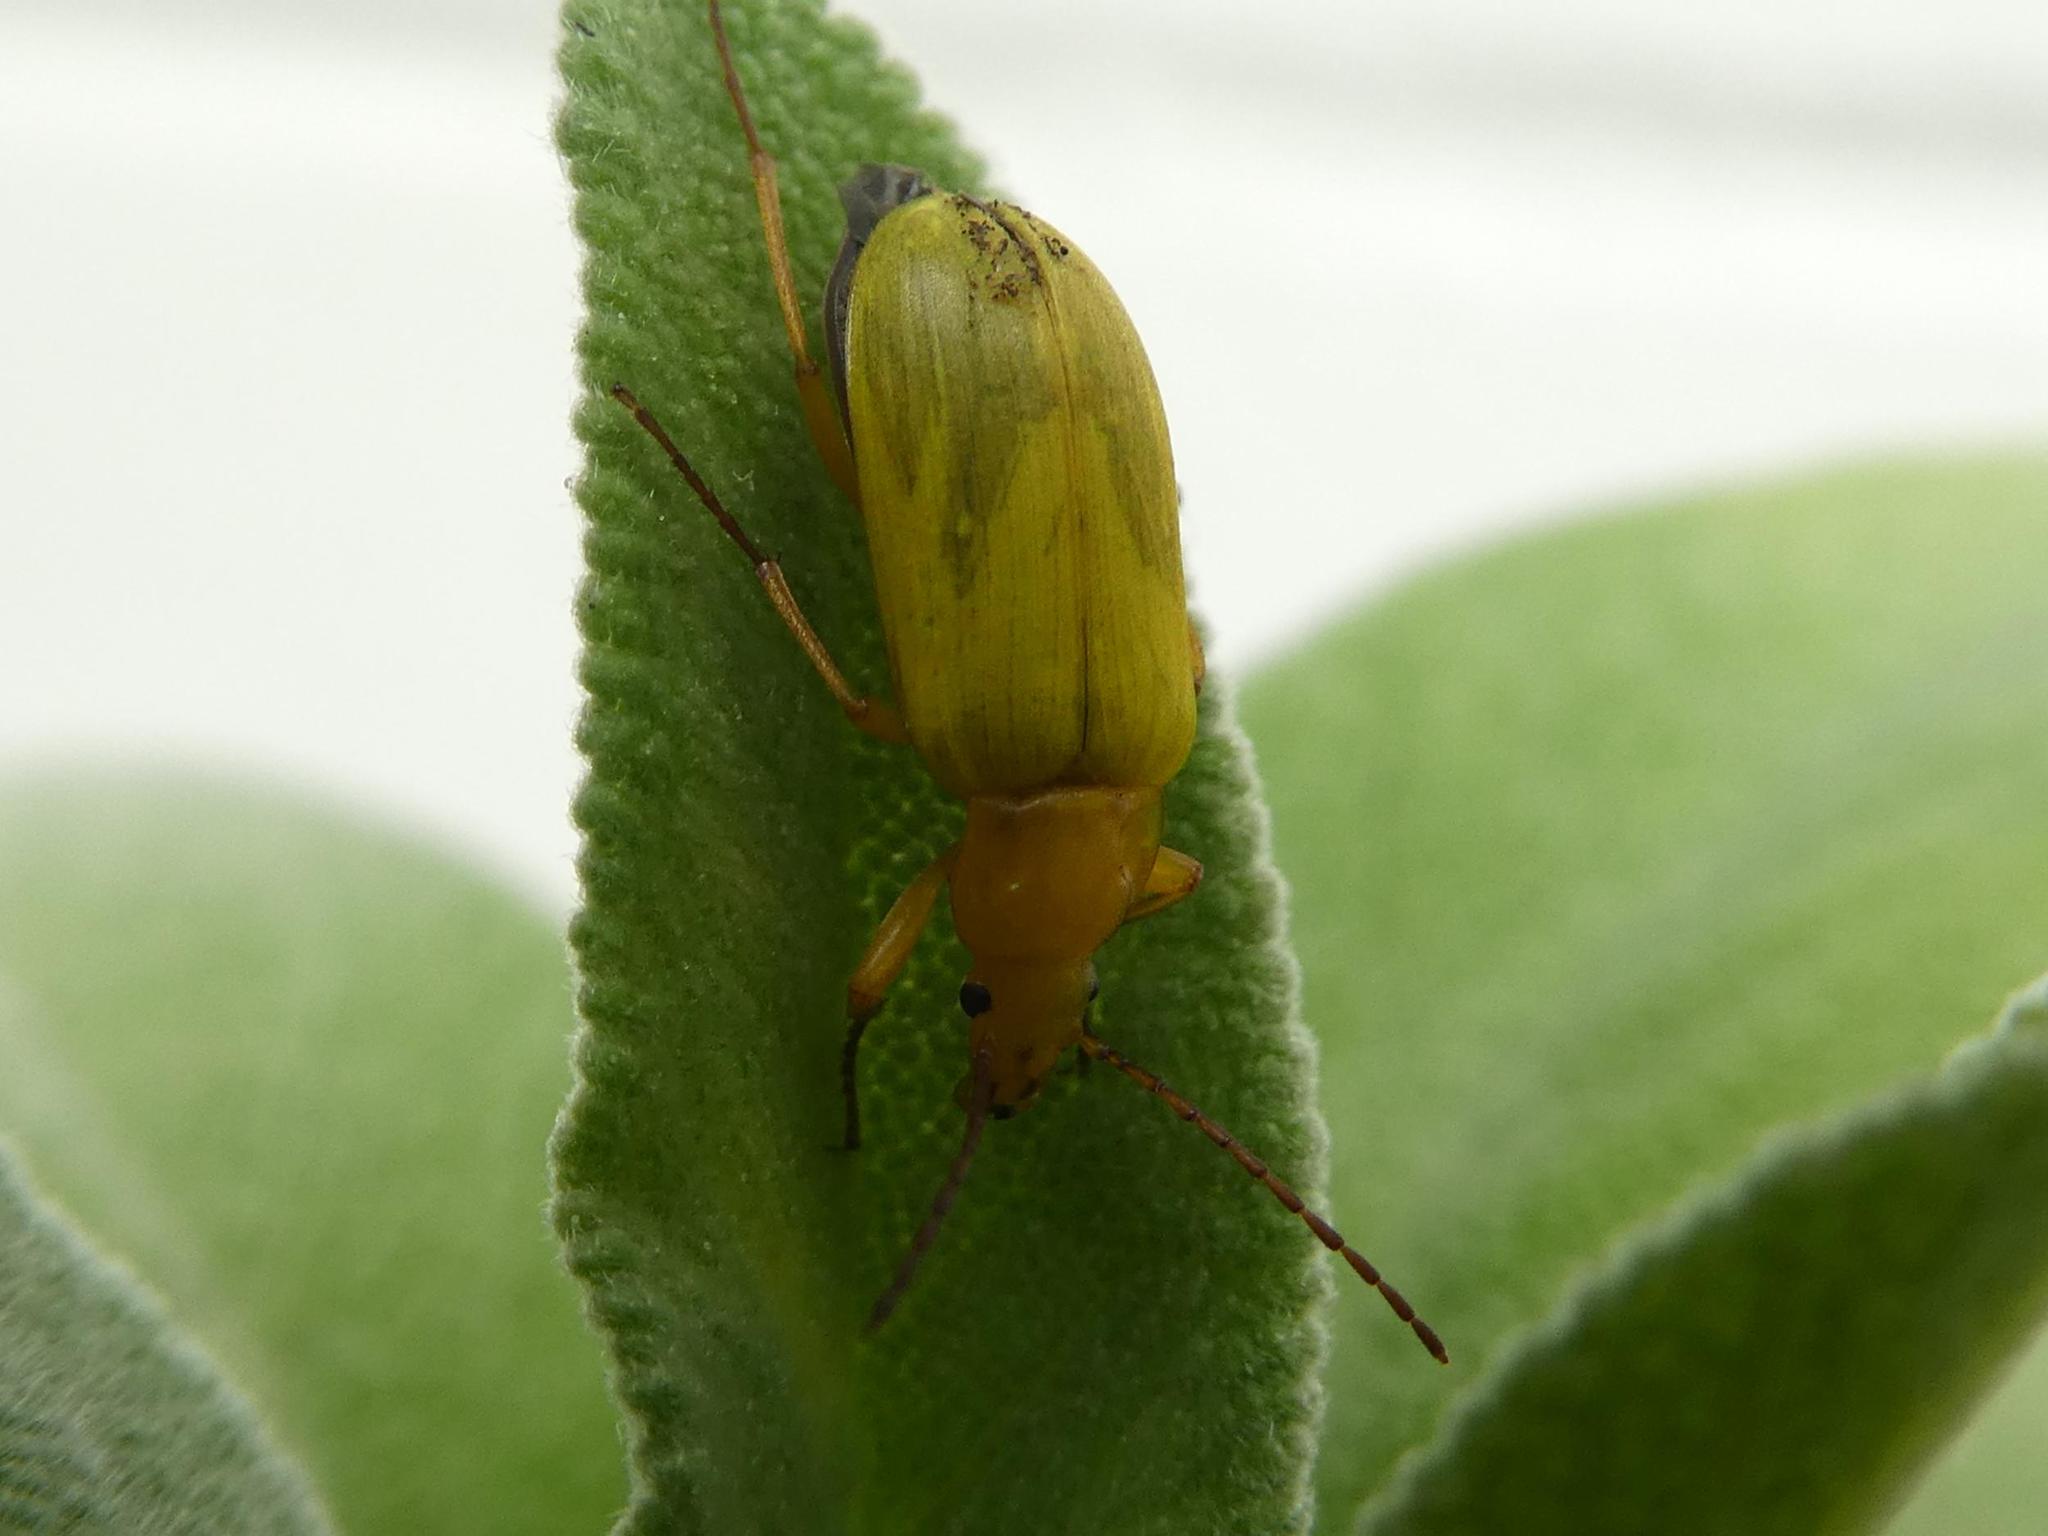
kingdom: Animalia
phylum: Arthropoda
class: Insecta
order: Coleoptera
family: Tenebrionidae
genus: Cteniopus
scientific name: Cteniopus sulphureus
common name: Sulphur beetle
